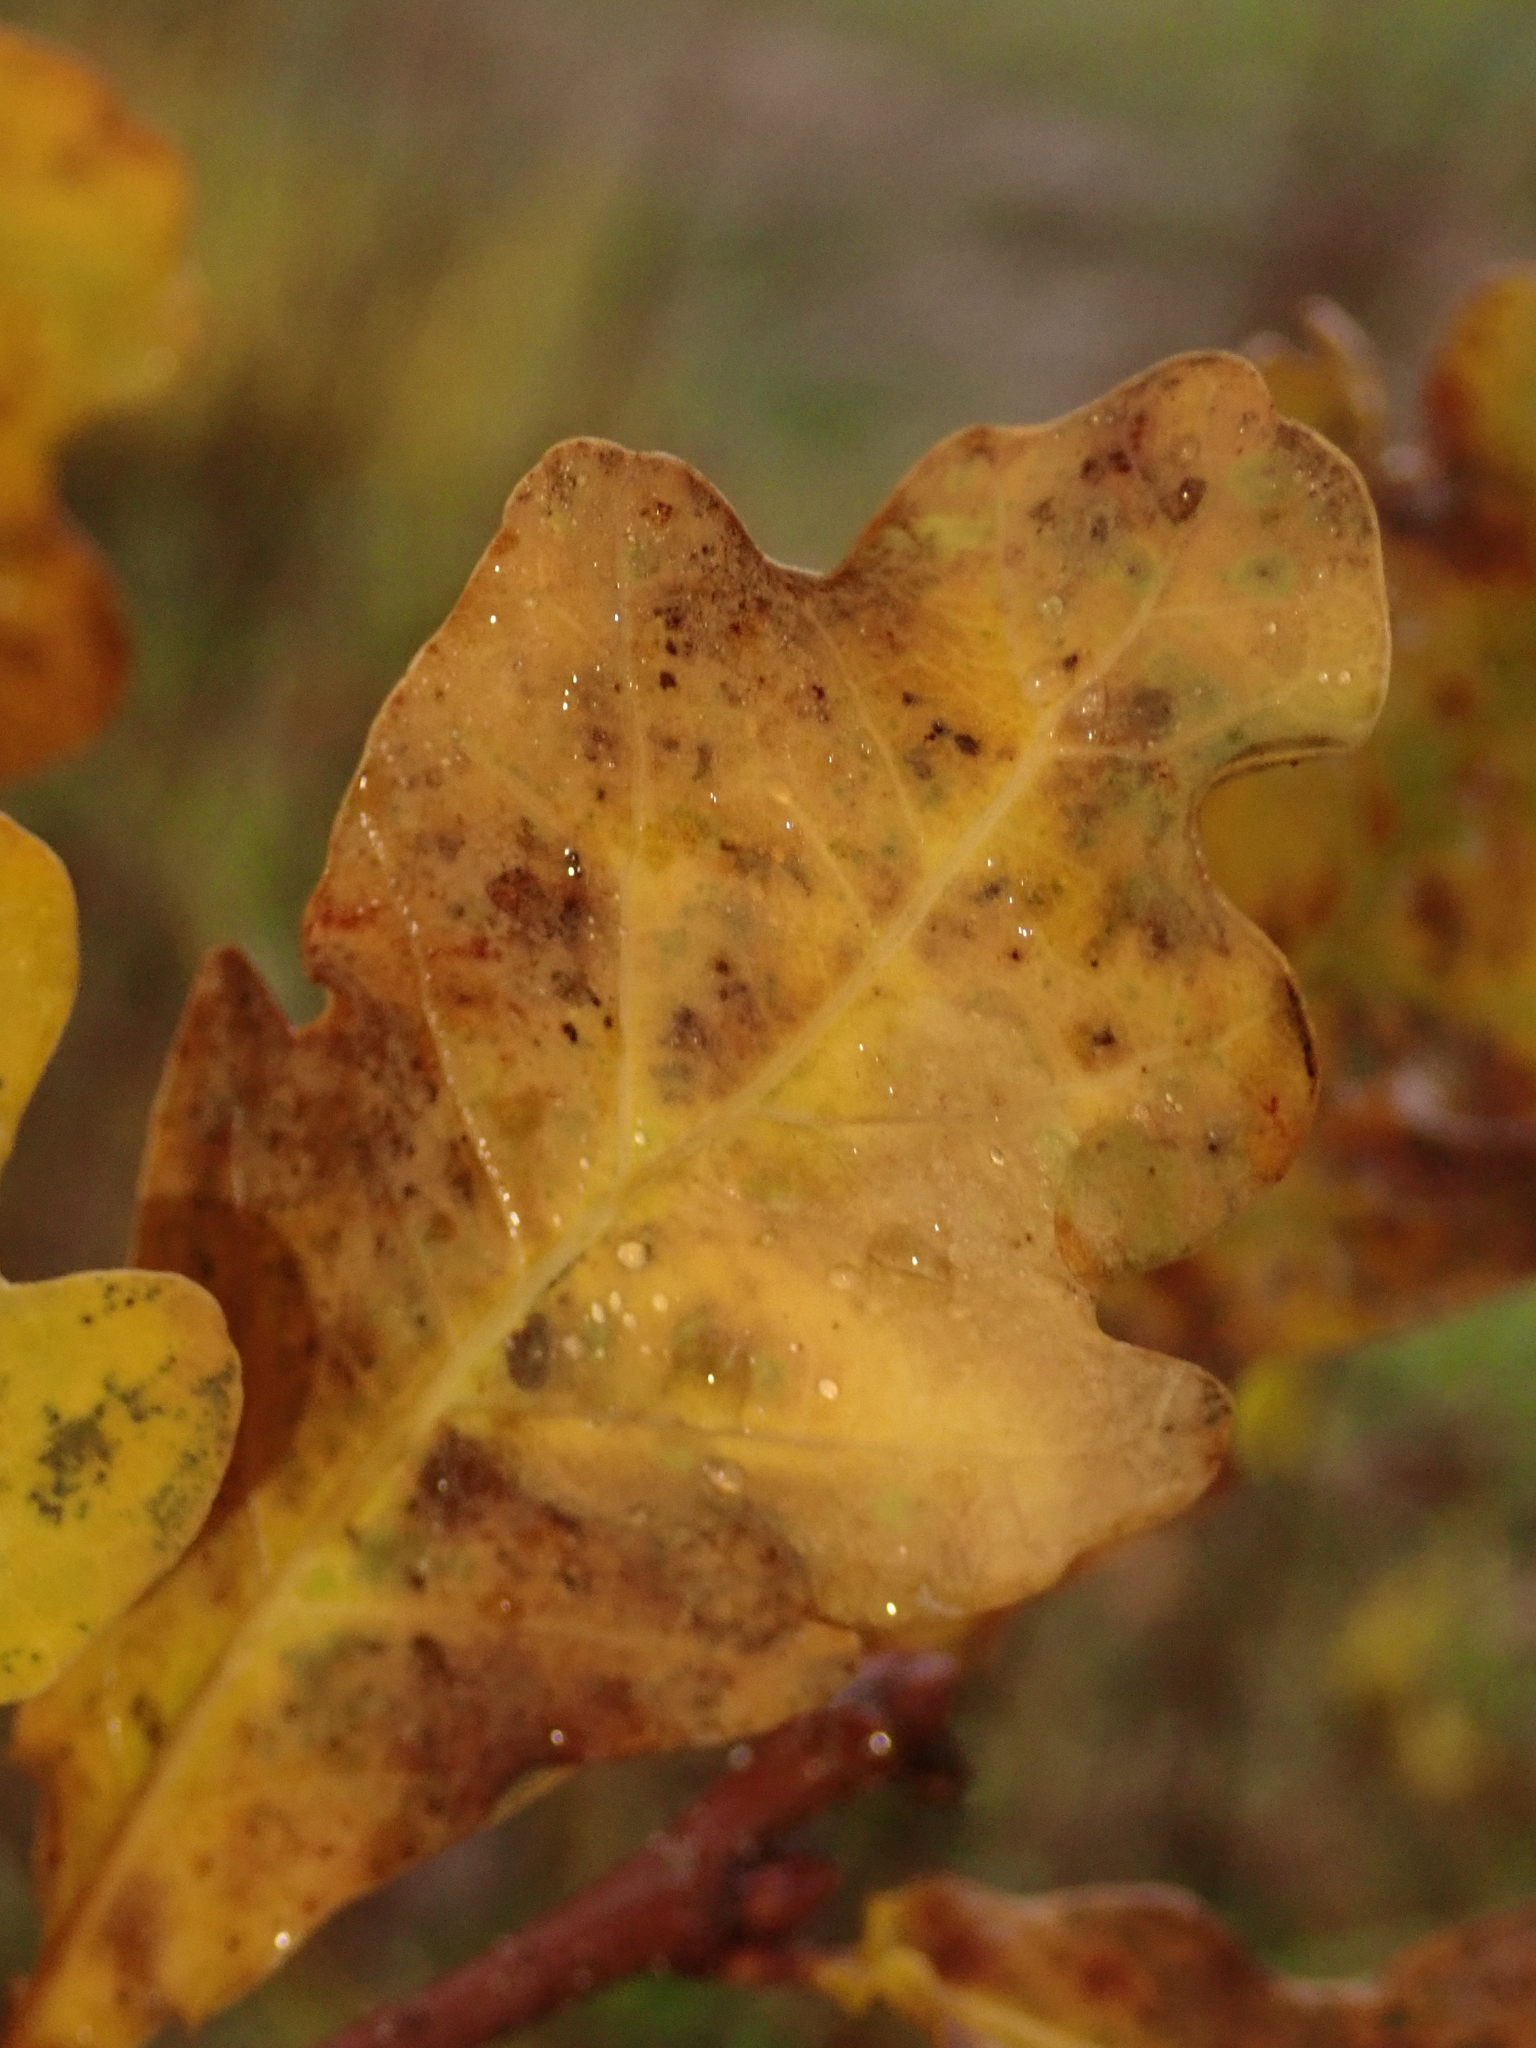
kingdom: Plantae
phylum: Tracheophyta
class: Magnoliopsida
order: Fagales
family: Fagaceae
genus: Quercus
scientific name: Quercus robur
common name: Pedunculate oak
